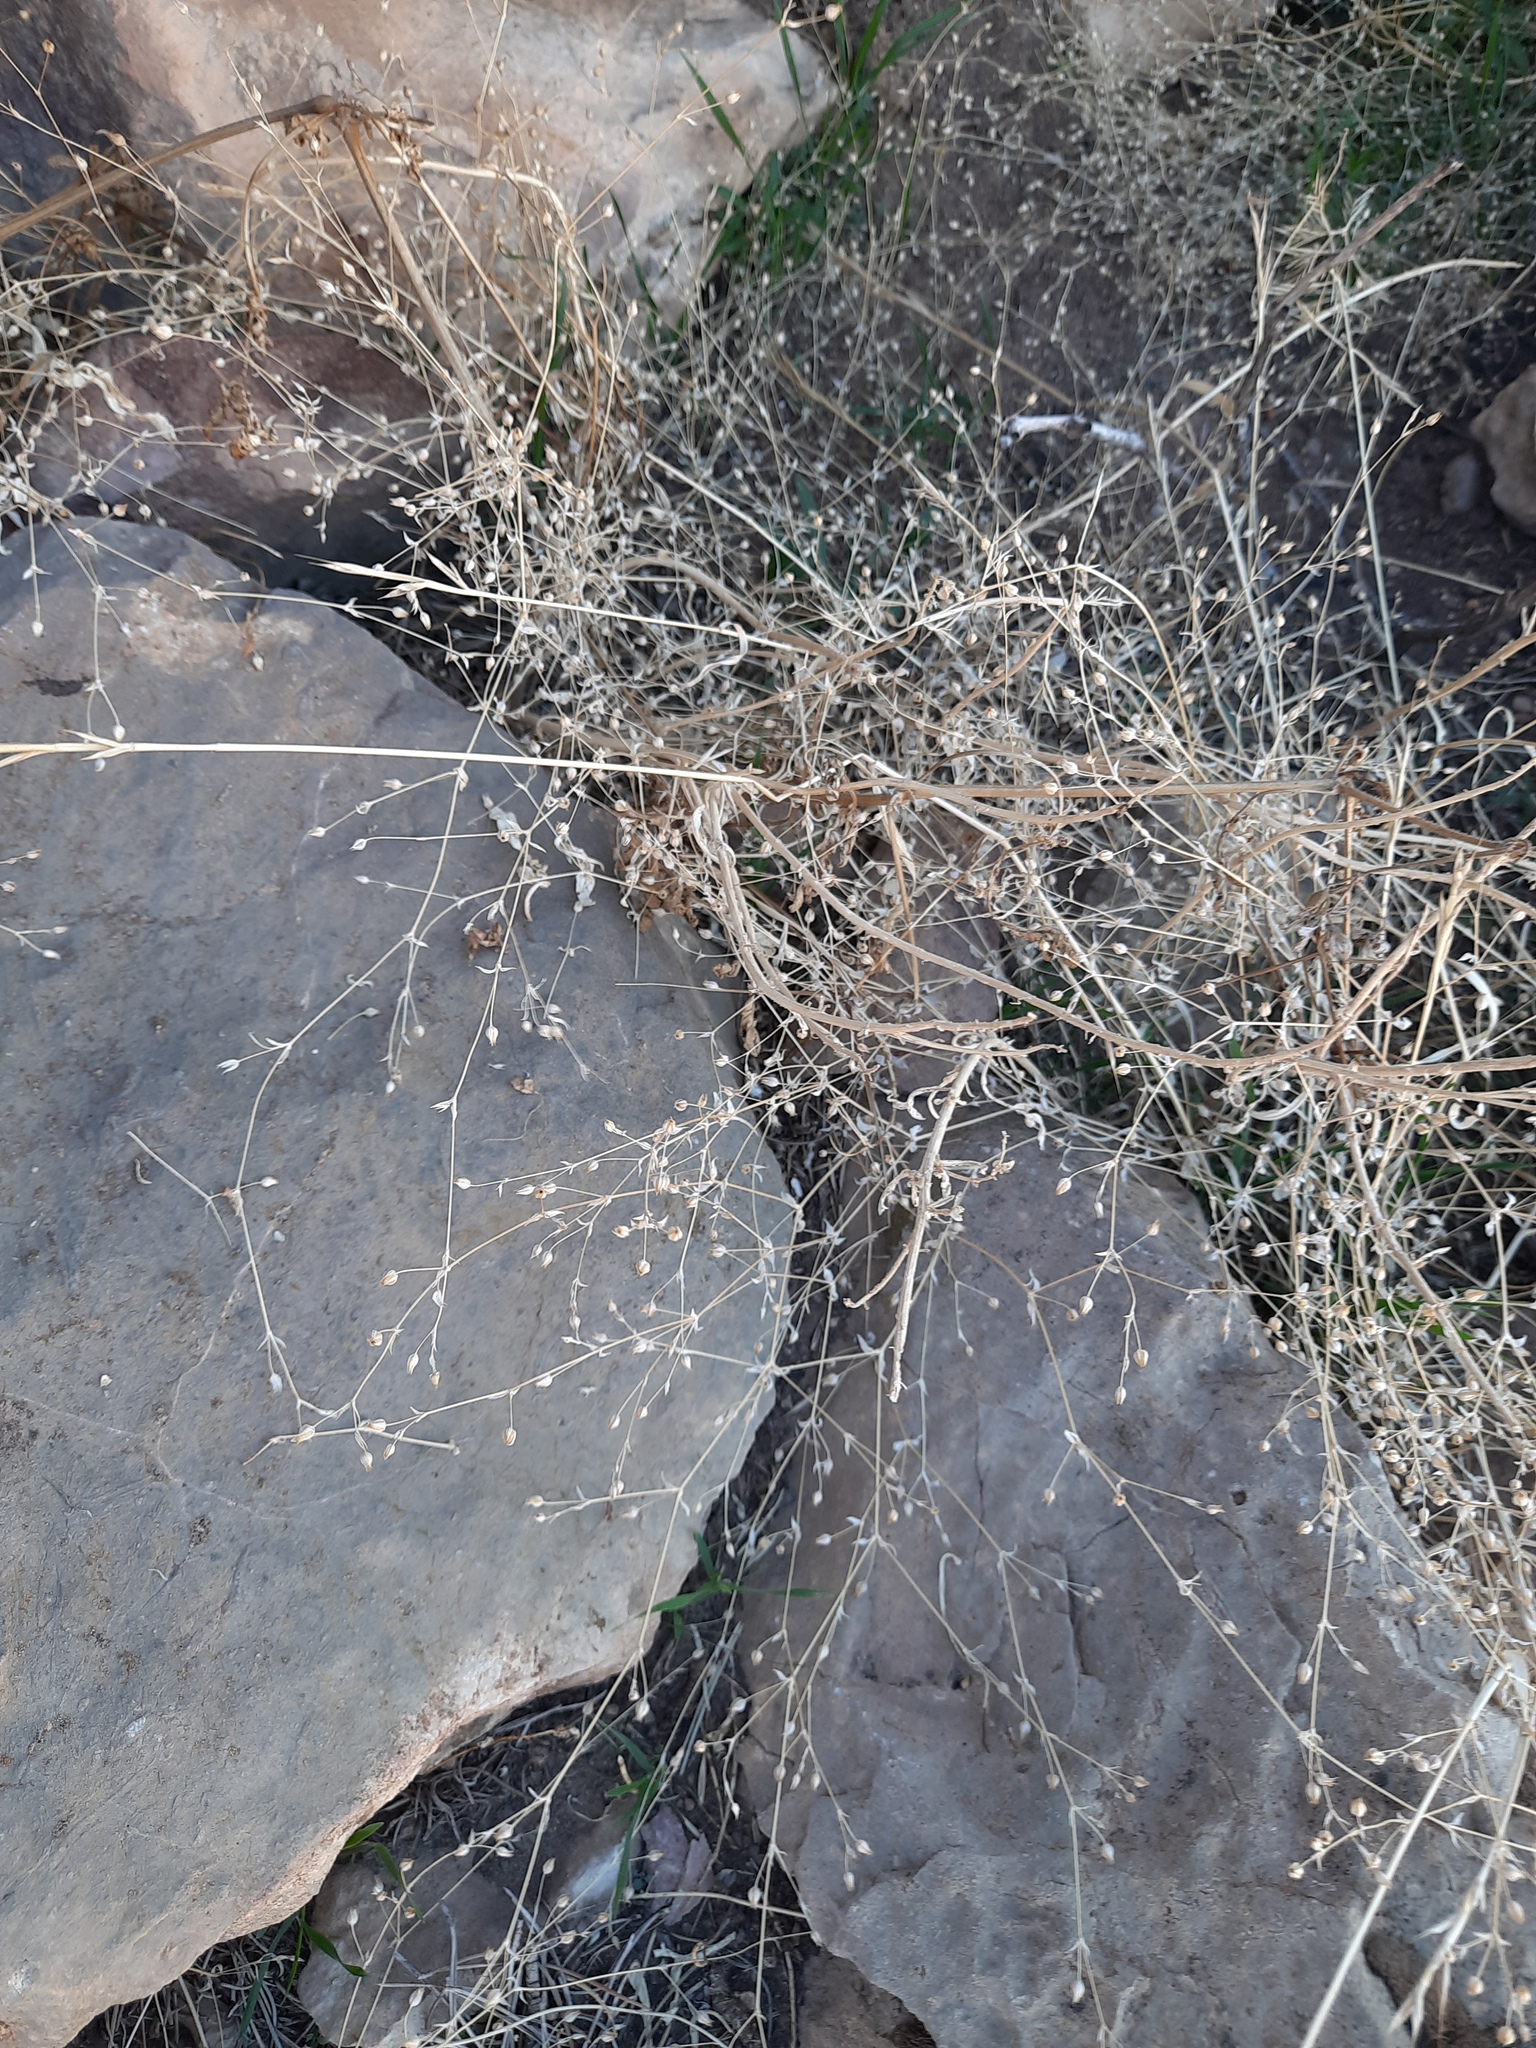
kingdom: Plantae
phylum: Tracheophyta
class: Magnoliopsida
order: Caryophyllales
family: Caryophyllaceae
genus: Arenaria
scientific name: Arenaria serpyllifolia
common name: Thyme-leaved sandwort
